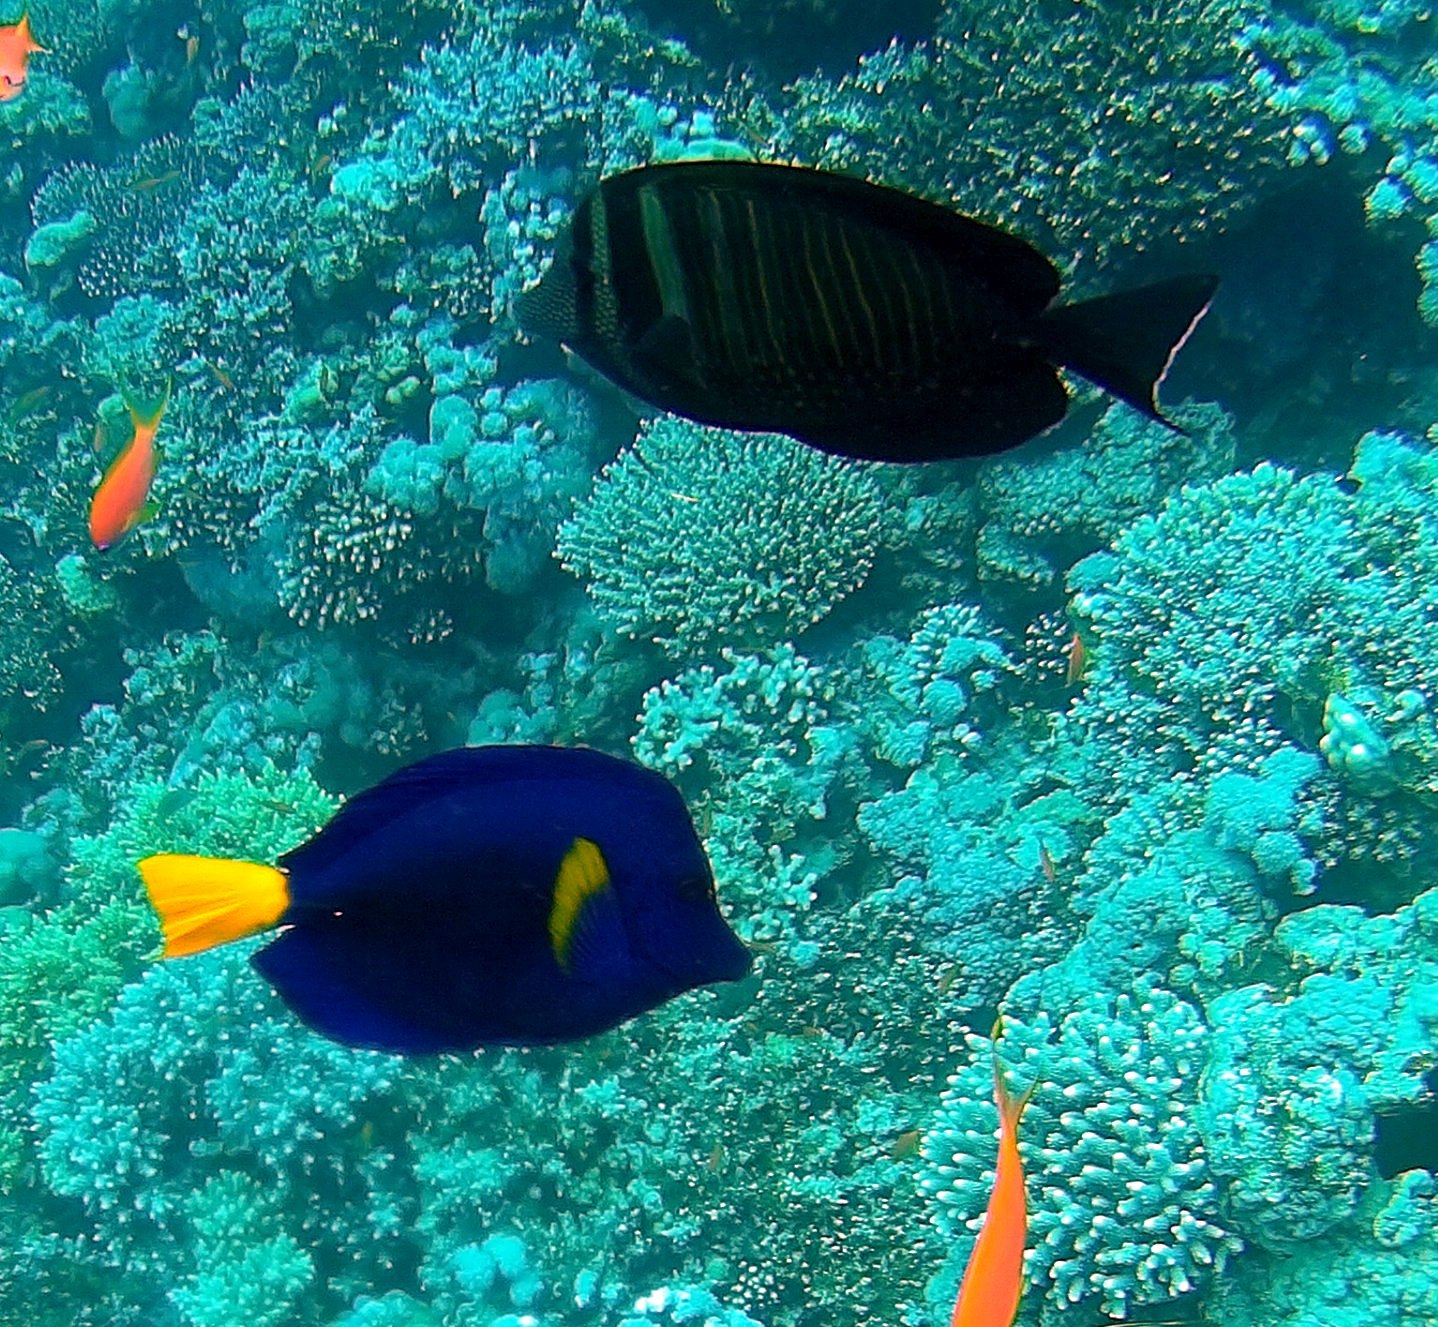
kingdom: Animalia
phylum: Chordata
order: Perciformes
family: Acanthuridae
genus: Zebrasoma
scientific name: Zebrasoma desjardinii
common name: Desjardin's sailfin tang
